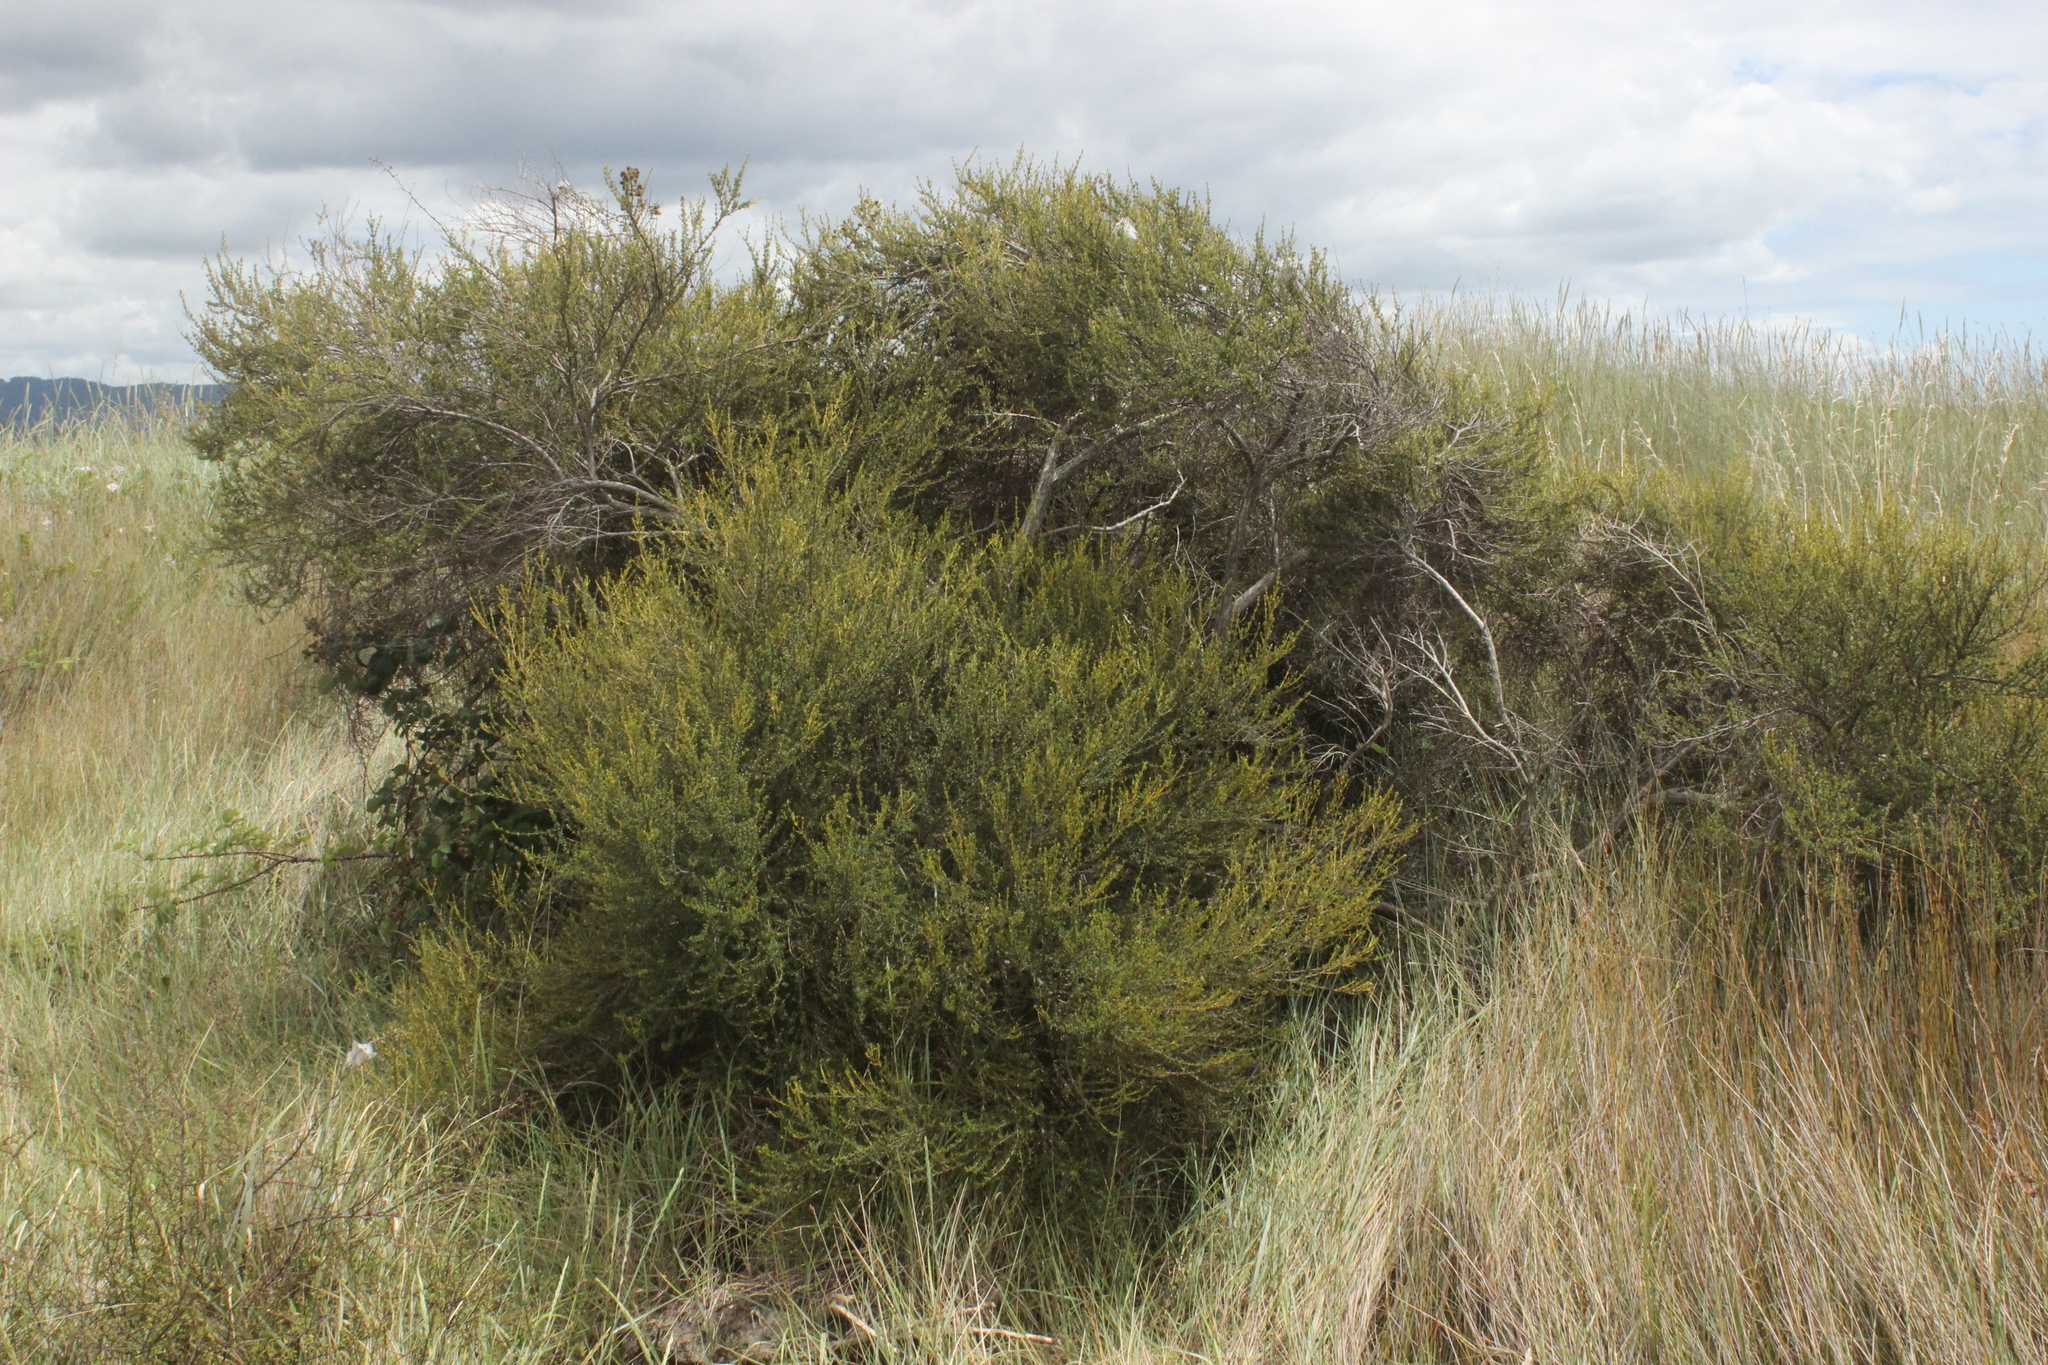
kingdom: Plantae
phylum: Tracheophyta
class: Magnoliopsida
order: Asterales
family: Asteraceae
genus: Olearia
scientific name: Olearia solandri
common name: Coastal daisybush
